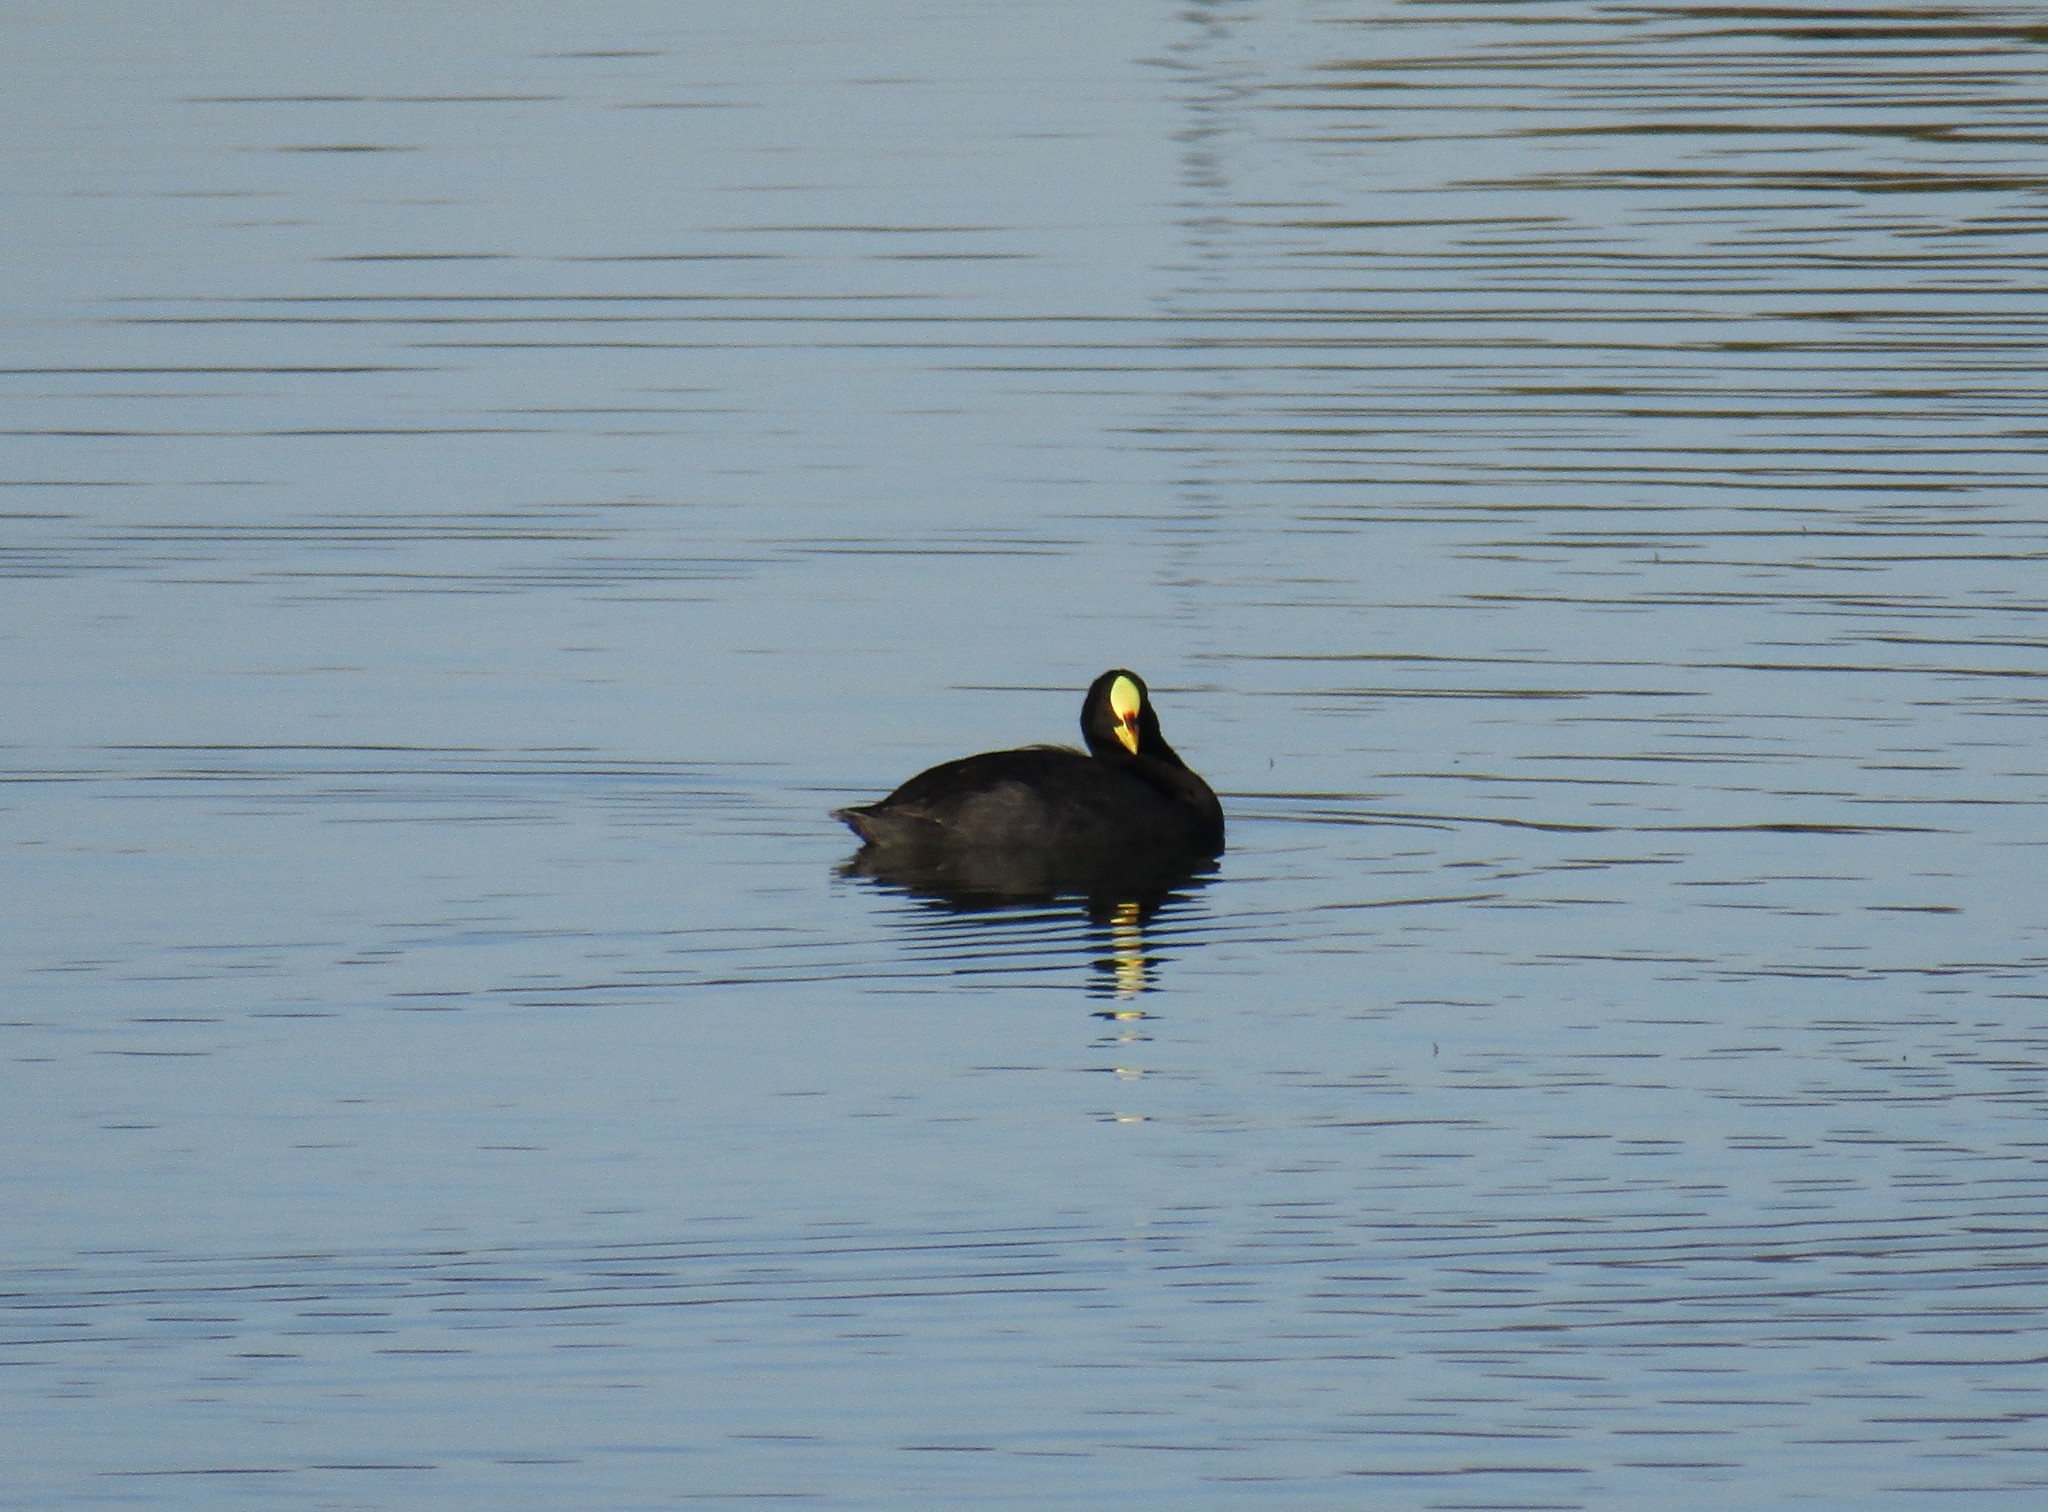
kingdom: Animalia
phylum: Chordata
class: Aves
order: Gruiformes
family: Rallidae
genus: Fulica
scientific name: Fulica armillata
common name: Red-gartered coot
